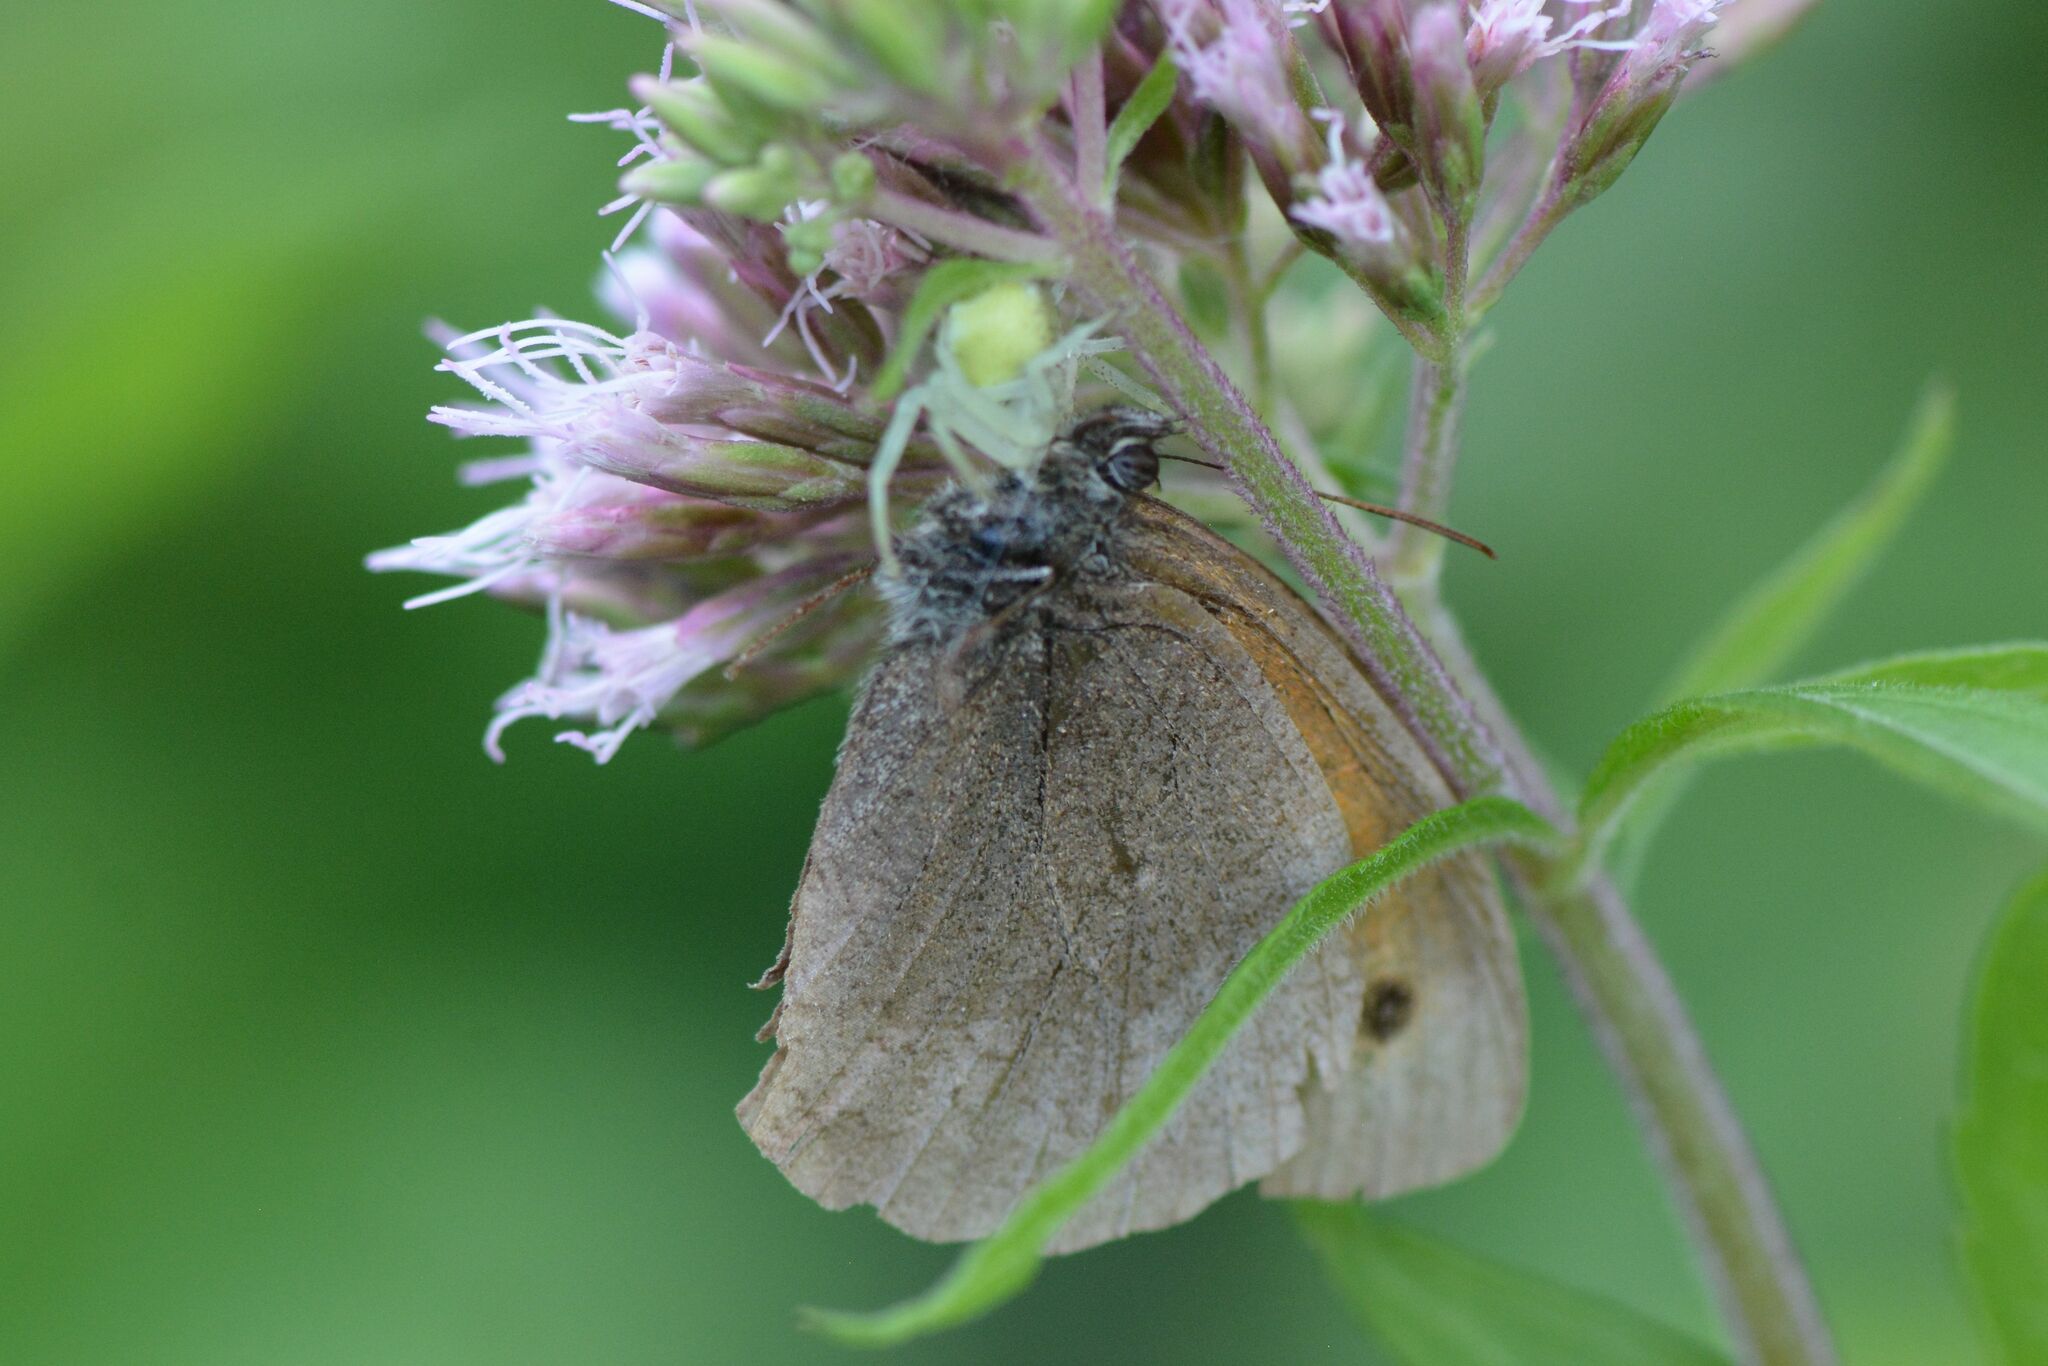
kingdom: Animalia
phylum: Arthropoda
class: Insecta
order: Lepidoptera
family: Nymphalidae
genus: Maniola
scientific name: Maniola jurtina
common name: Meadow brown
